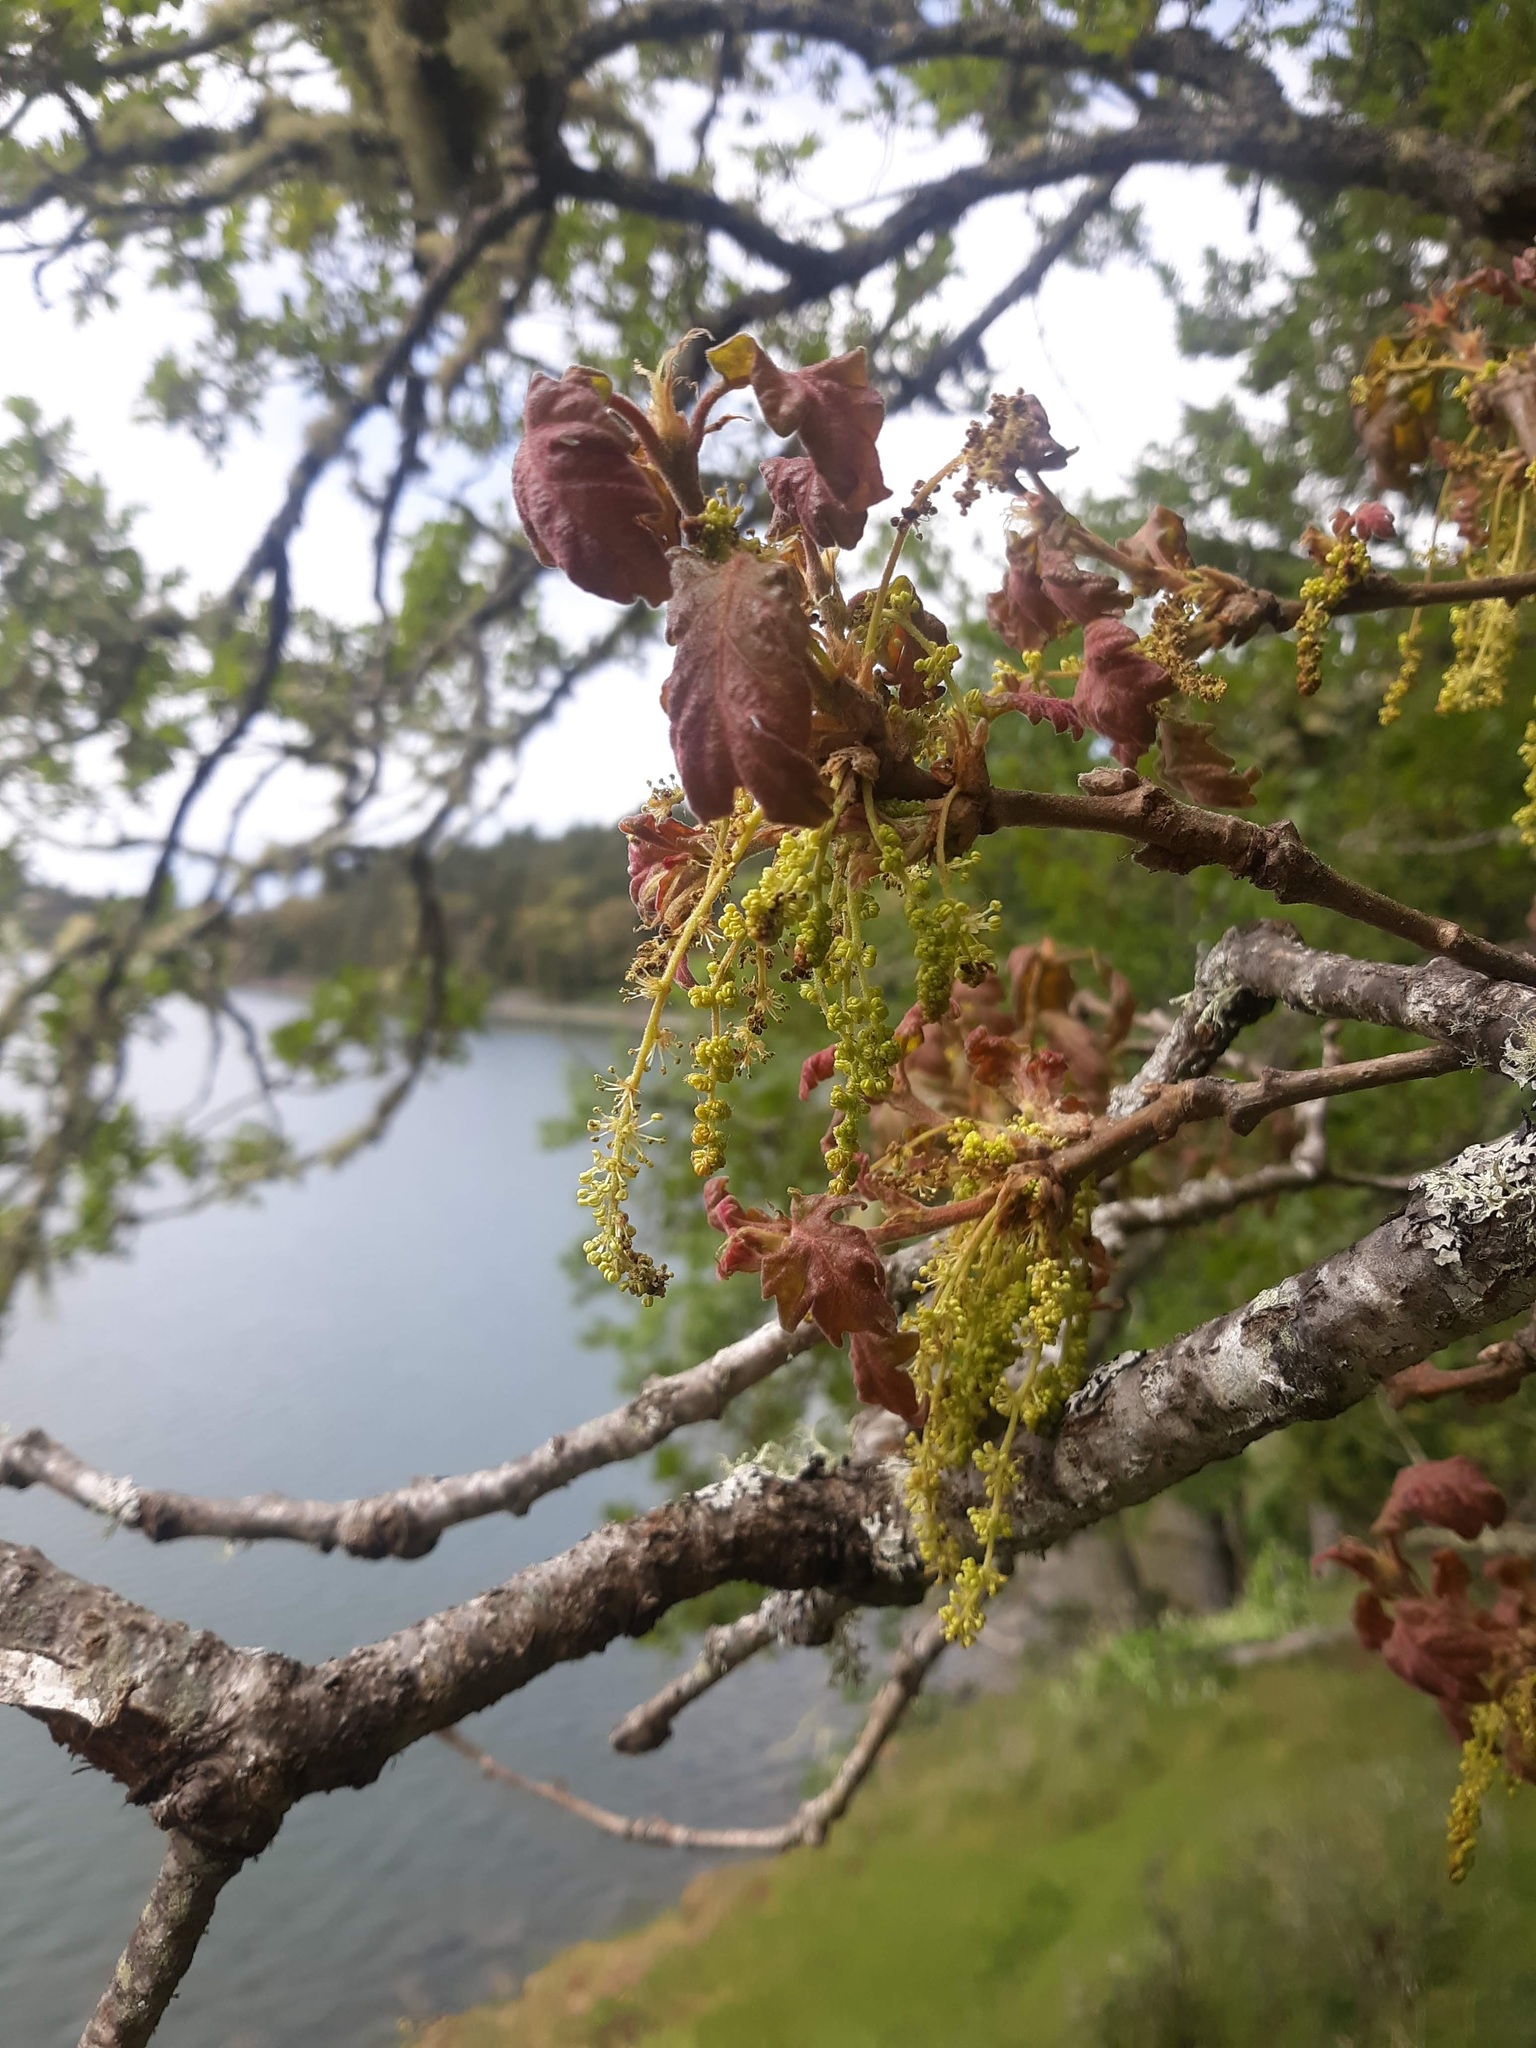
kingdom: Plantae
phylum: Tracheophyta
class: Magnoliopsida
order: Fagales
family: Fagaceae
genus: Quercus
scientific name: Quercus garryana
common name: Garry oak
